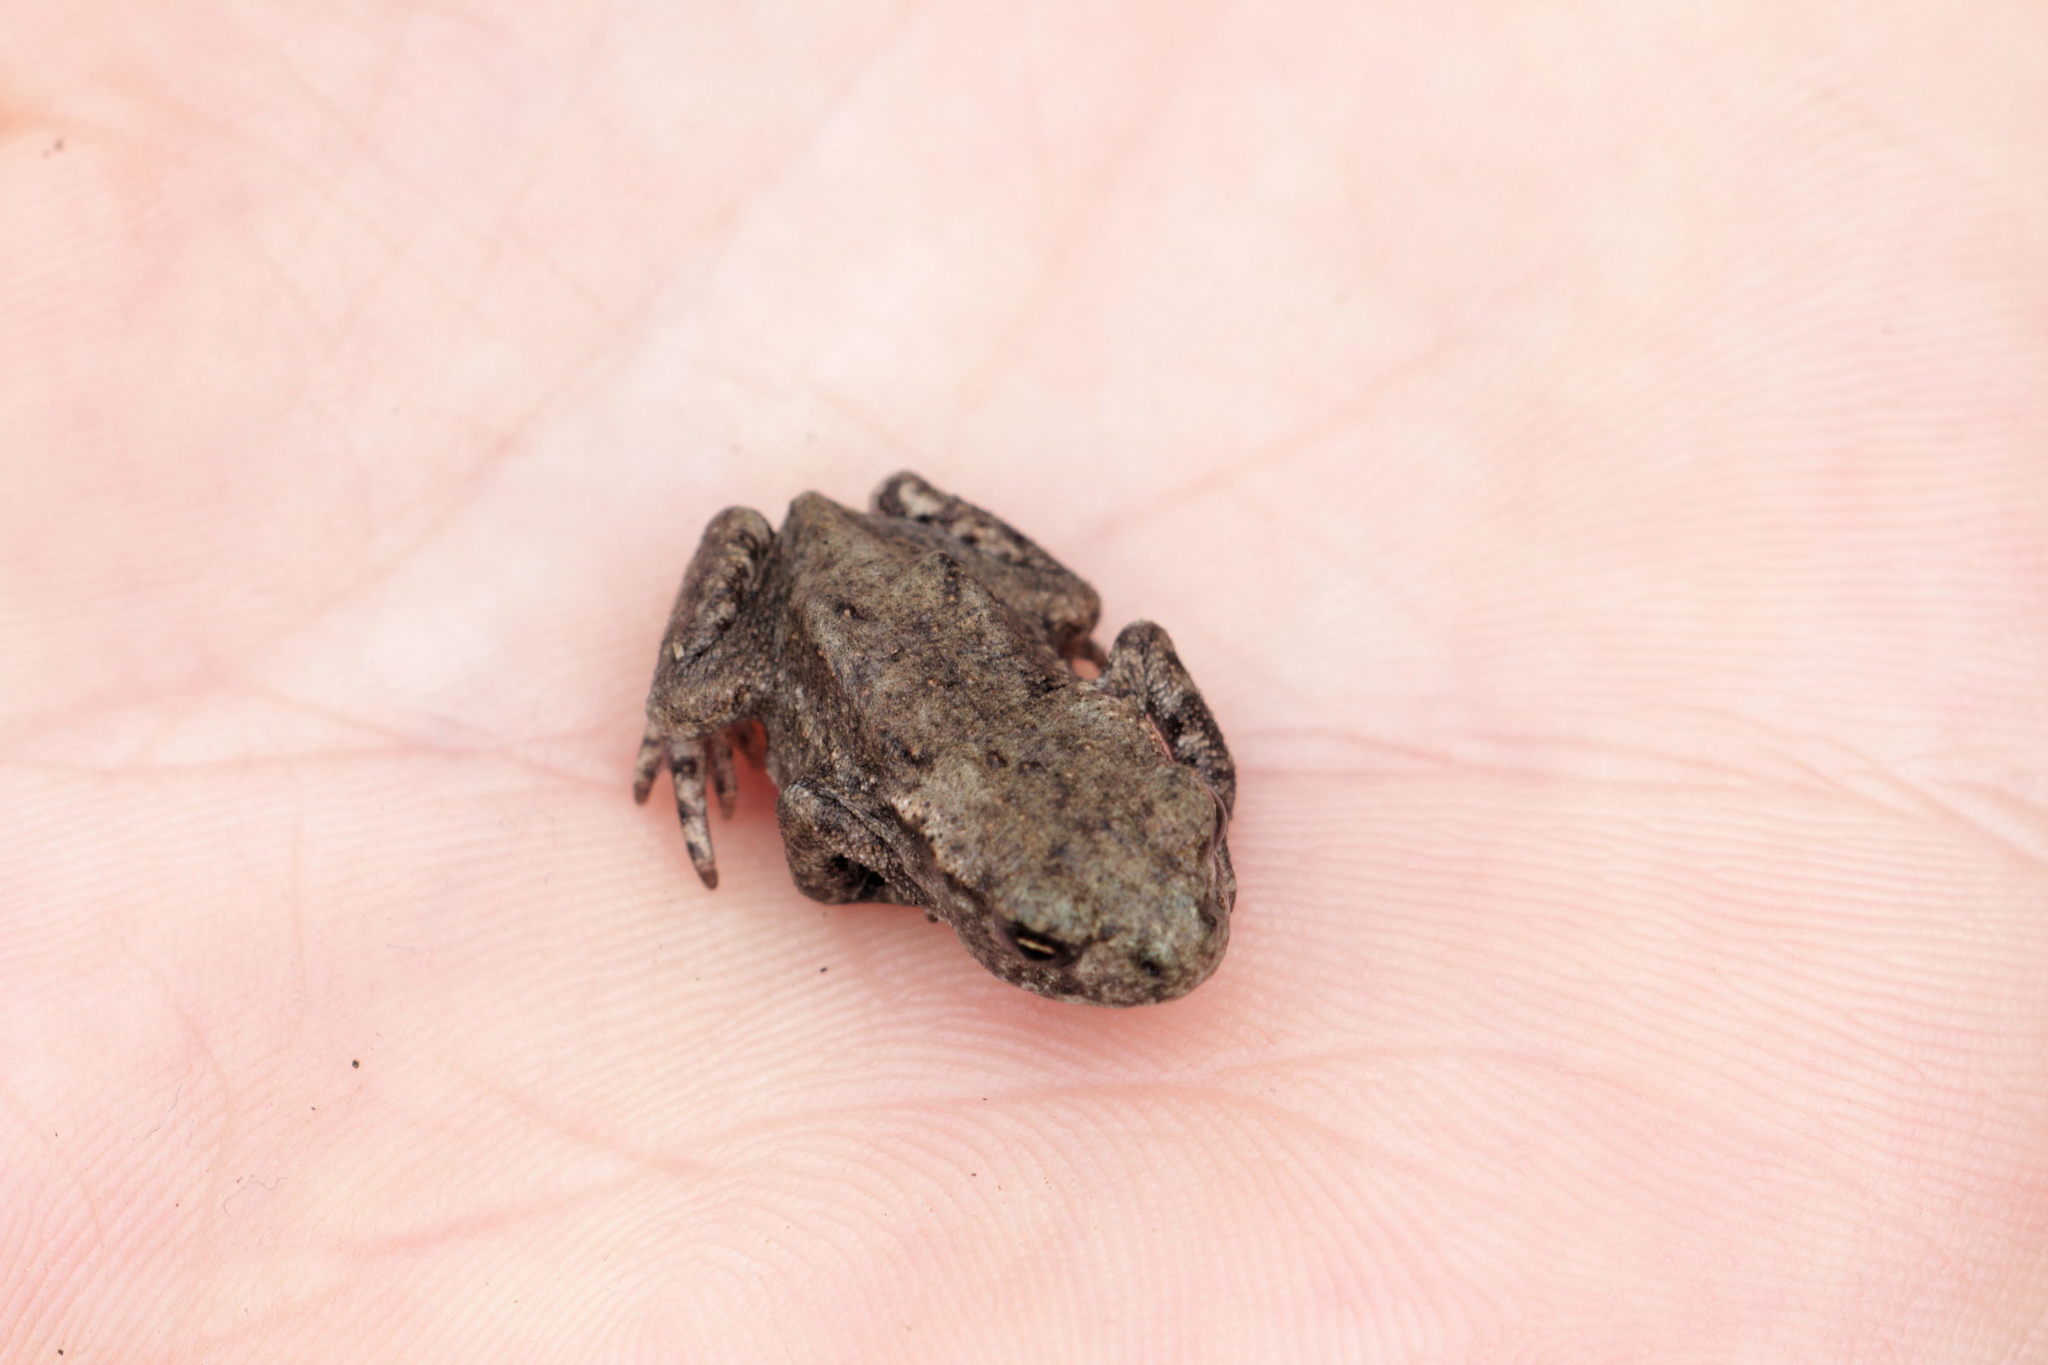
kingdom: Animalia
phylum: Chordata
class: Amphibia
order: Anura
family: Bufonidae
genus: Bufo
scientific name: Bufo bufo
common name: Common toad
